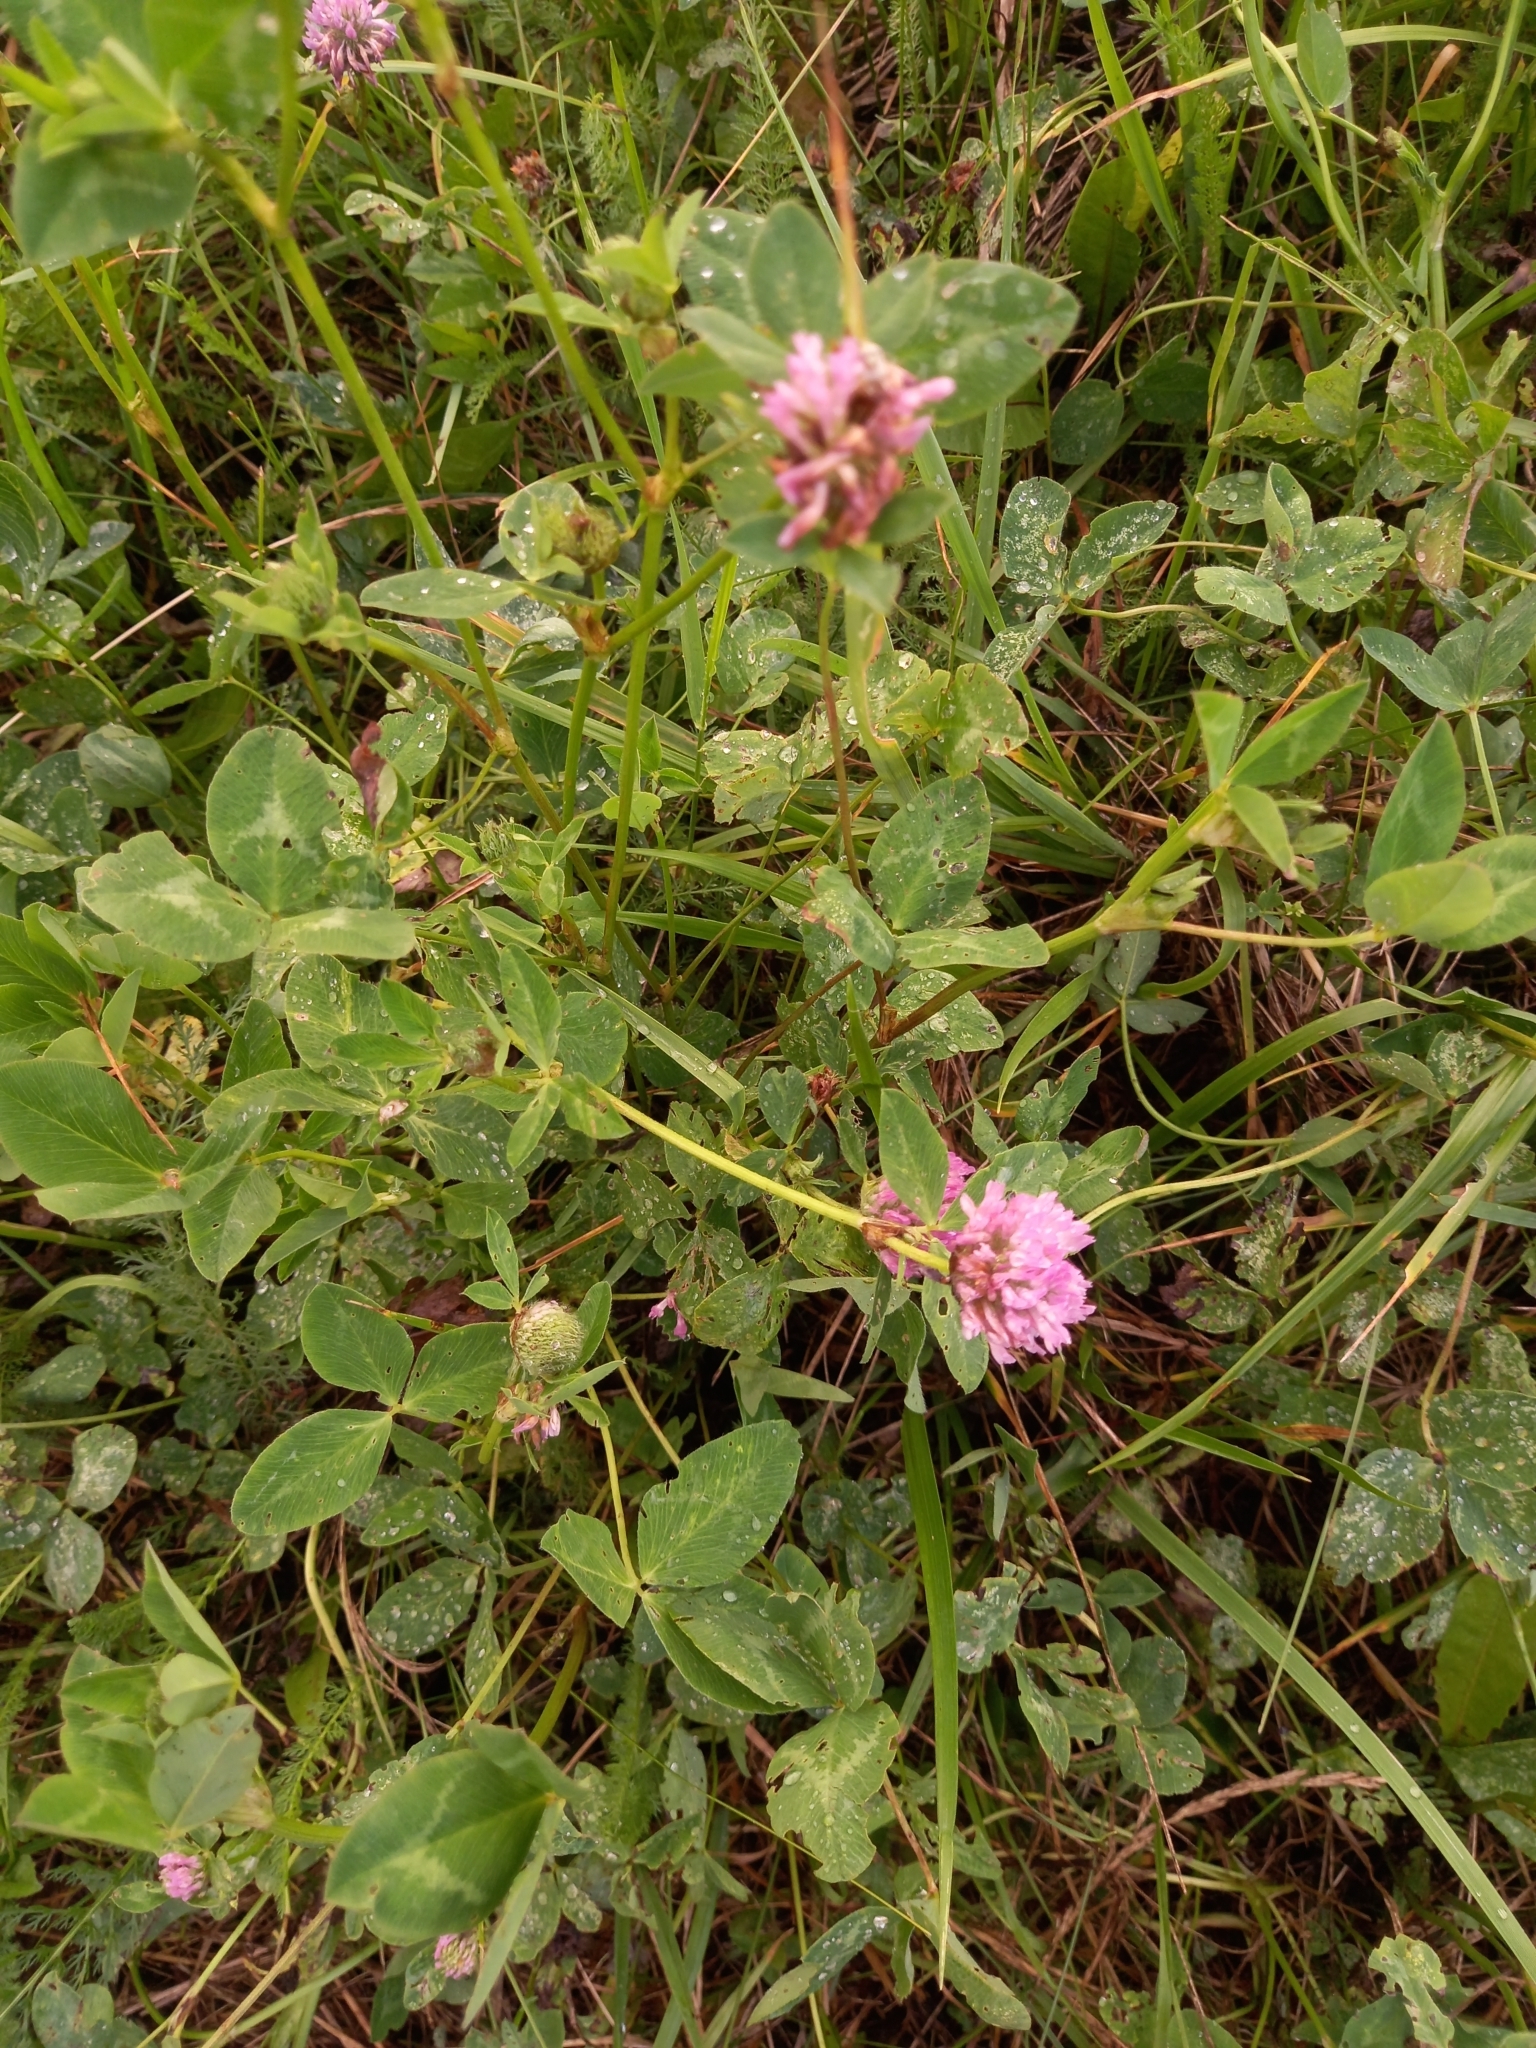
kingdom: Plantae
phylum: Tracheophyta
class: Magnoliopsida
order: Fabales
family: Fabaceae
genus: Trifolium
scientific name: Trifolium pratense
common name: Red clover
